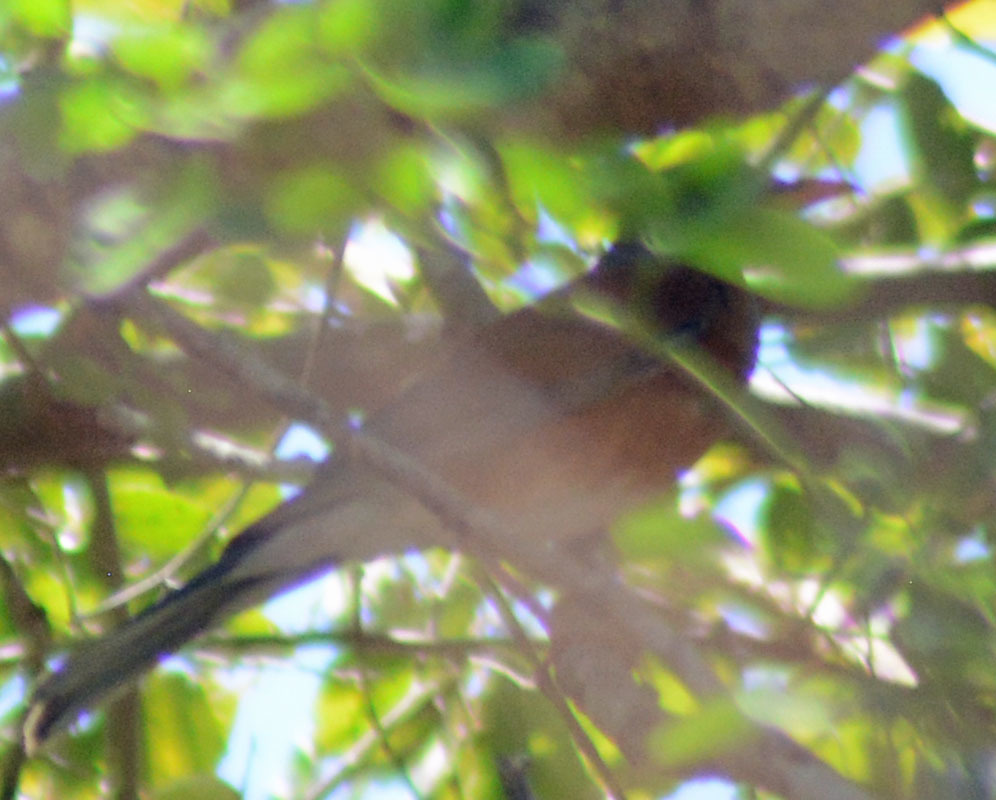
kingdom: Animalia
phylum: Chordata
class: Aves
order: Passeriformes
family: Turdidae
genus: Turdus
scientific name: Turdus rufopalliatus
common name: Rufous-backed robin
